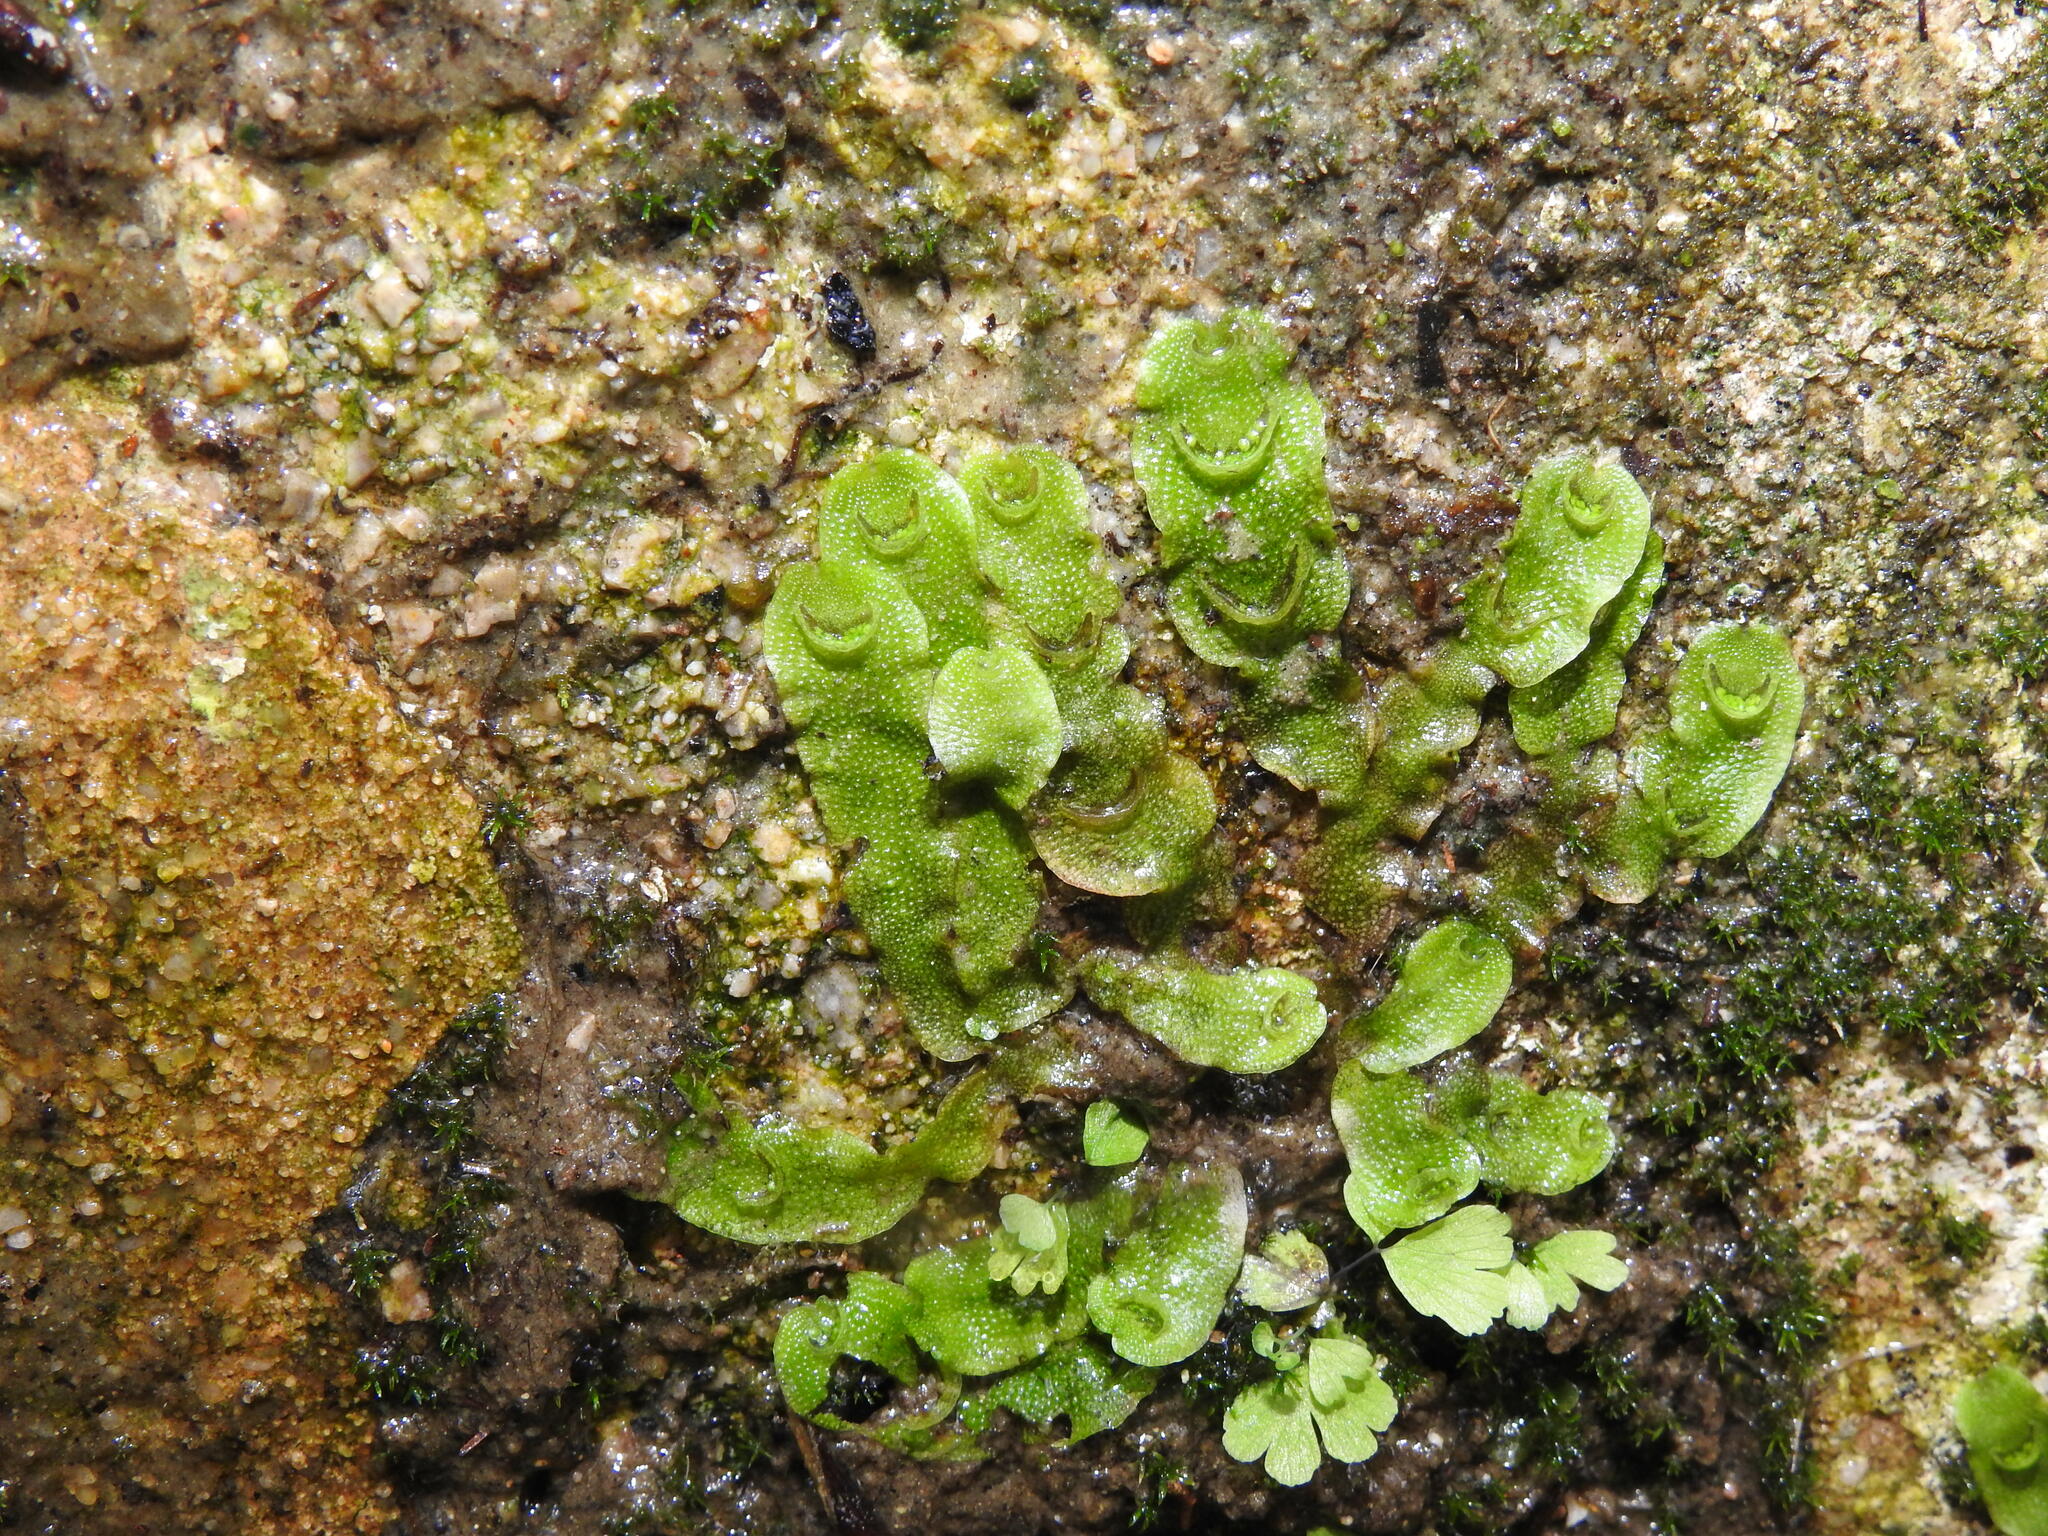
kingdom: Plantae
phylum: Marchantiophyta
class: Marchantiopsida
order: Lunulariales
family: Lunulariaceae
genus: Lunularia
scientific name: Lunularia cruciata
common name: Crescent-cup liverwort
